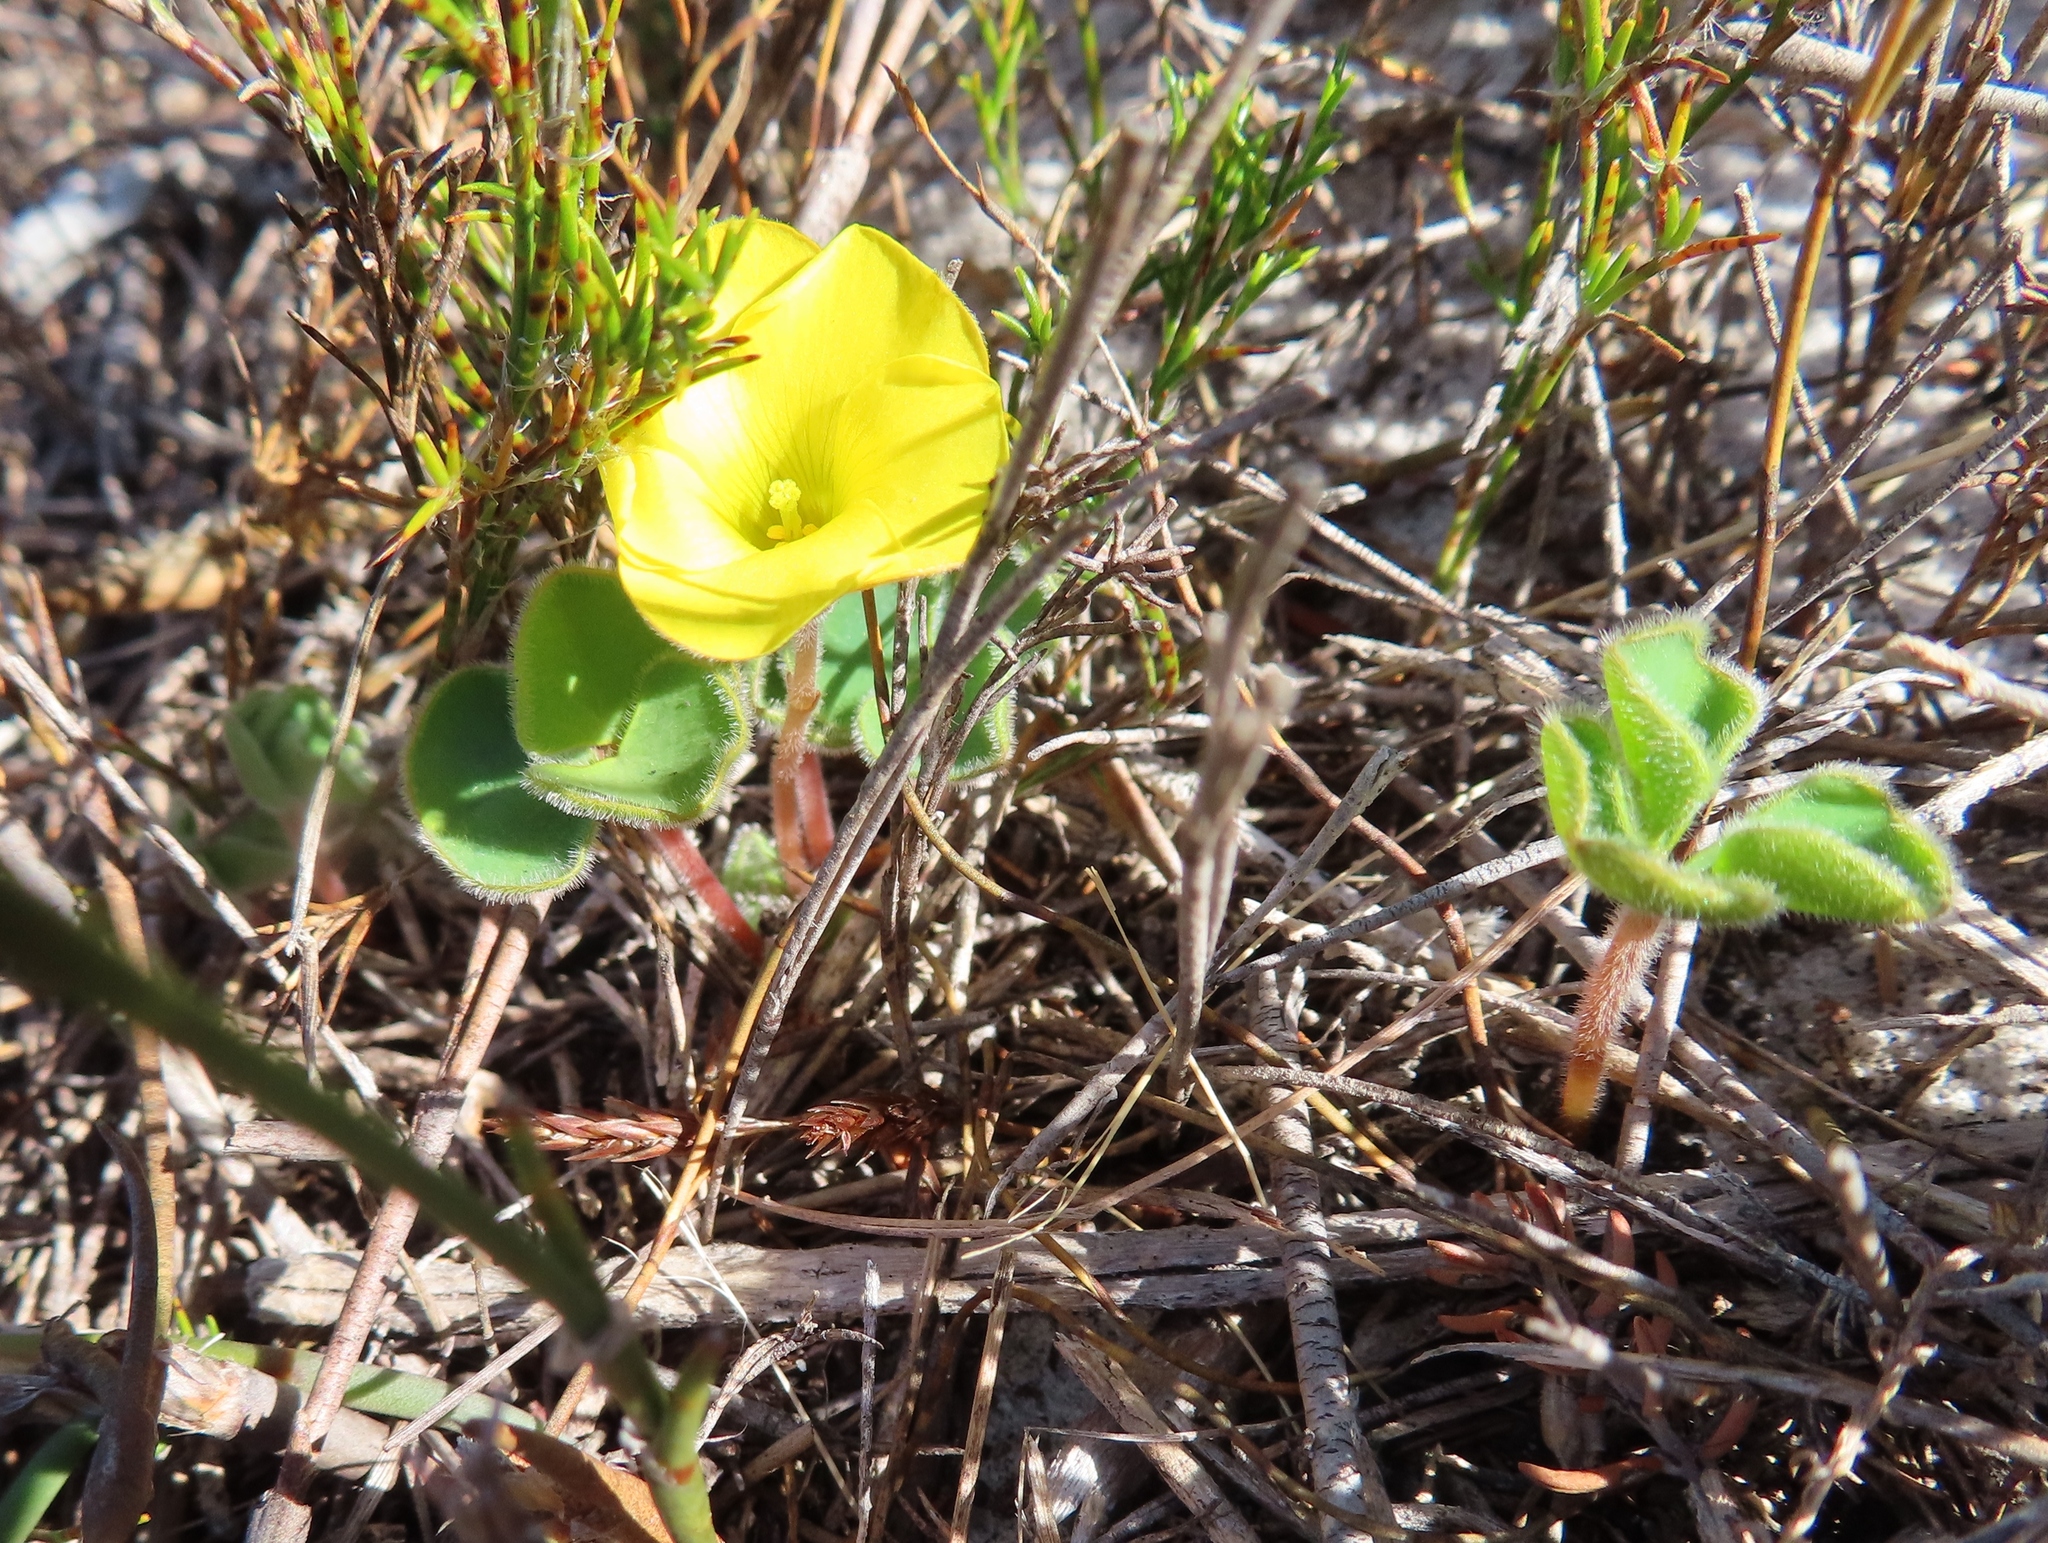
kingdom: Plantae
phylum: Tracheophyta
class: Magnoliopsida
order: Oxalidales
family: Oxalidaceae
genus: Oxalis
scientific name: Oxalis luteola
